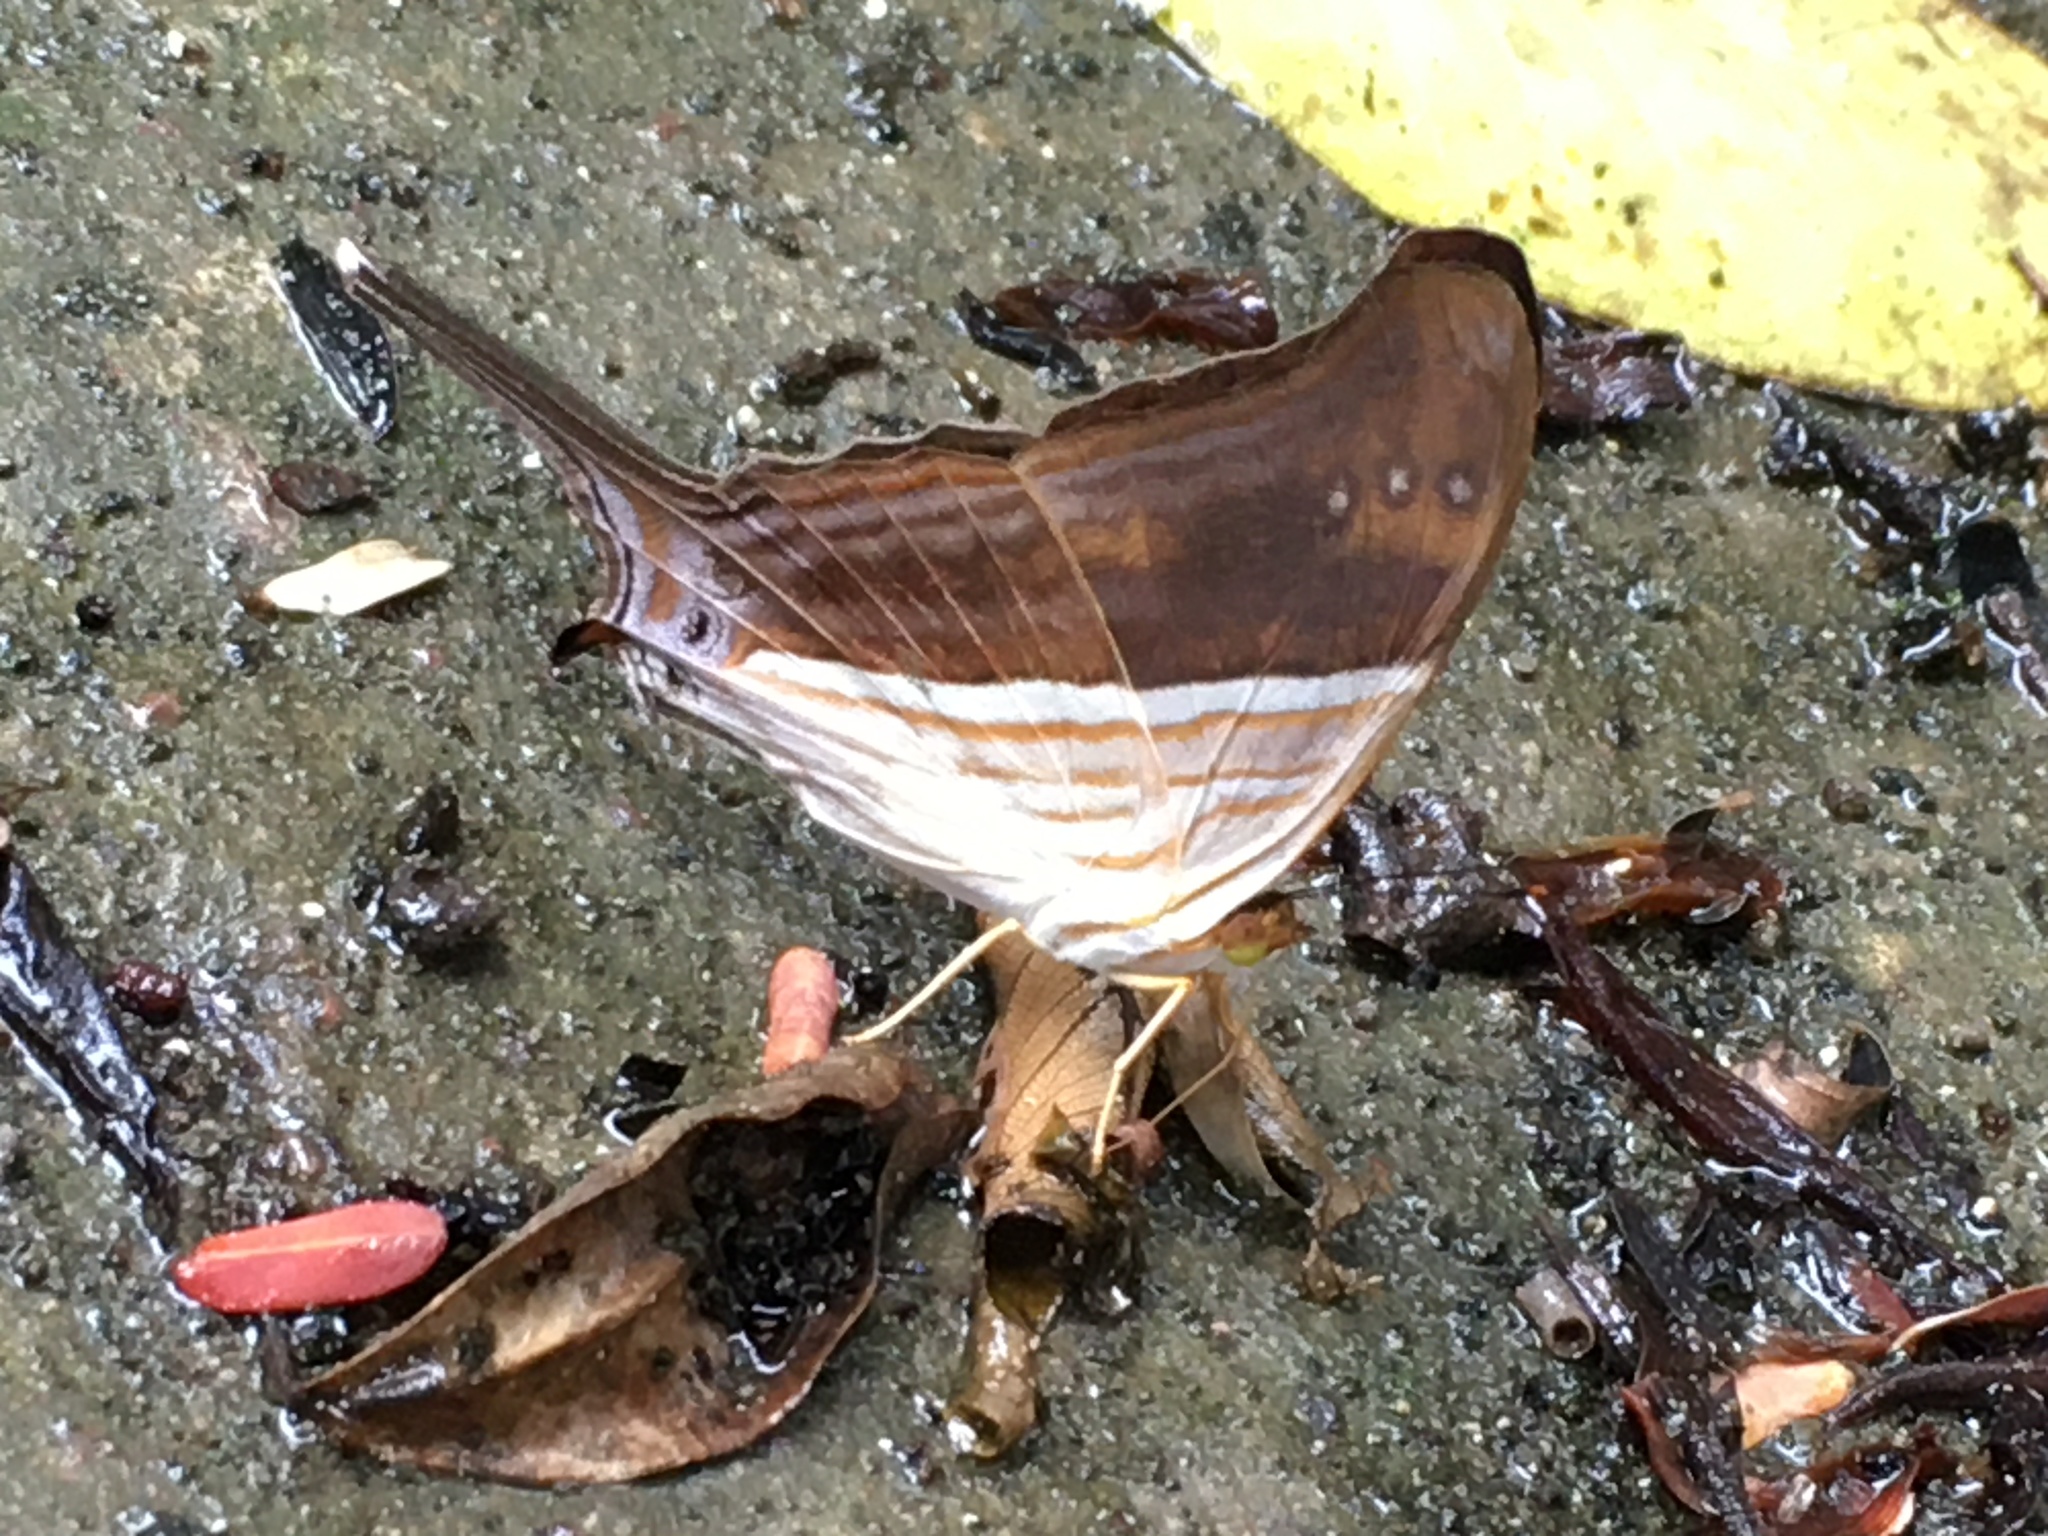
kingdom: Animalia
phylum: Arthropoda
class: Insecta
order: Lepidoptera
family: Nymphalidae
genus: Marpesia
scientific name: Marpesia chiron
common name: Many-banded daggerwing
